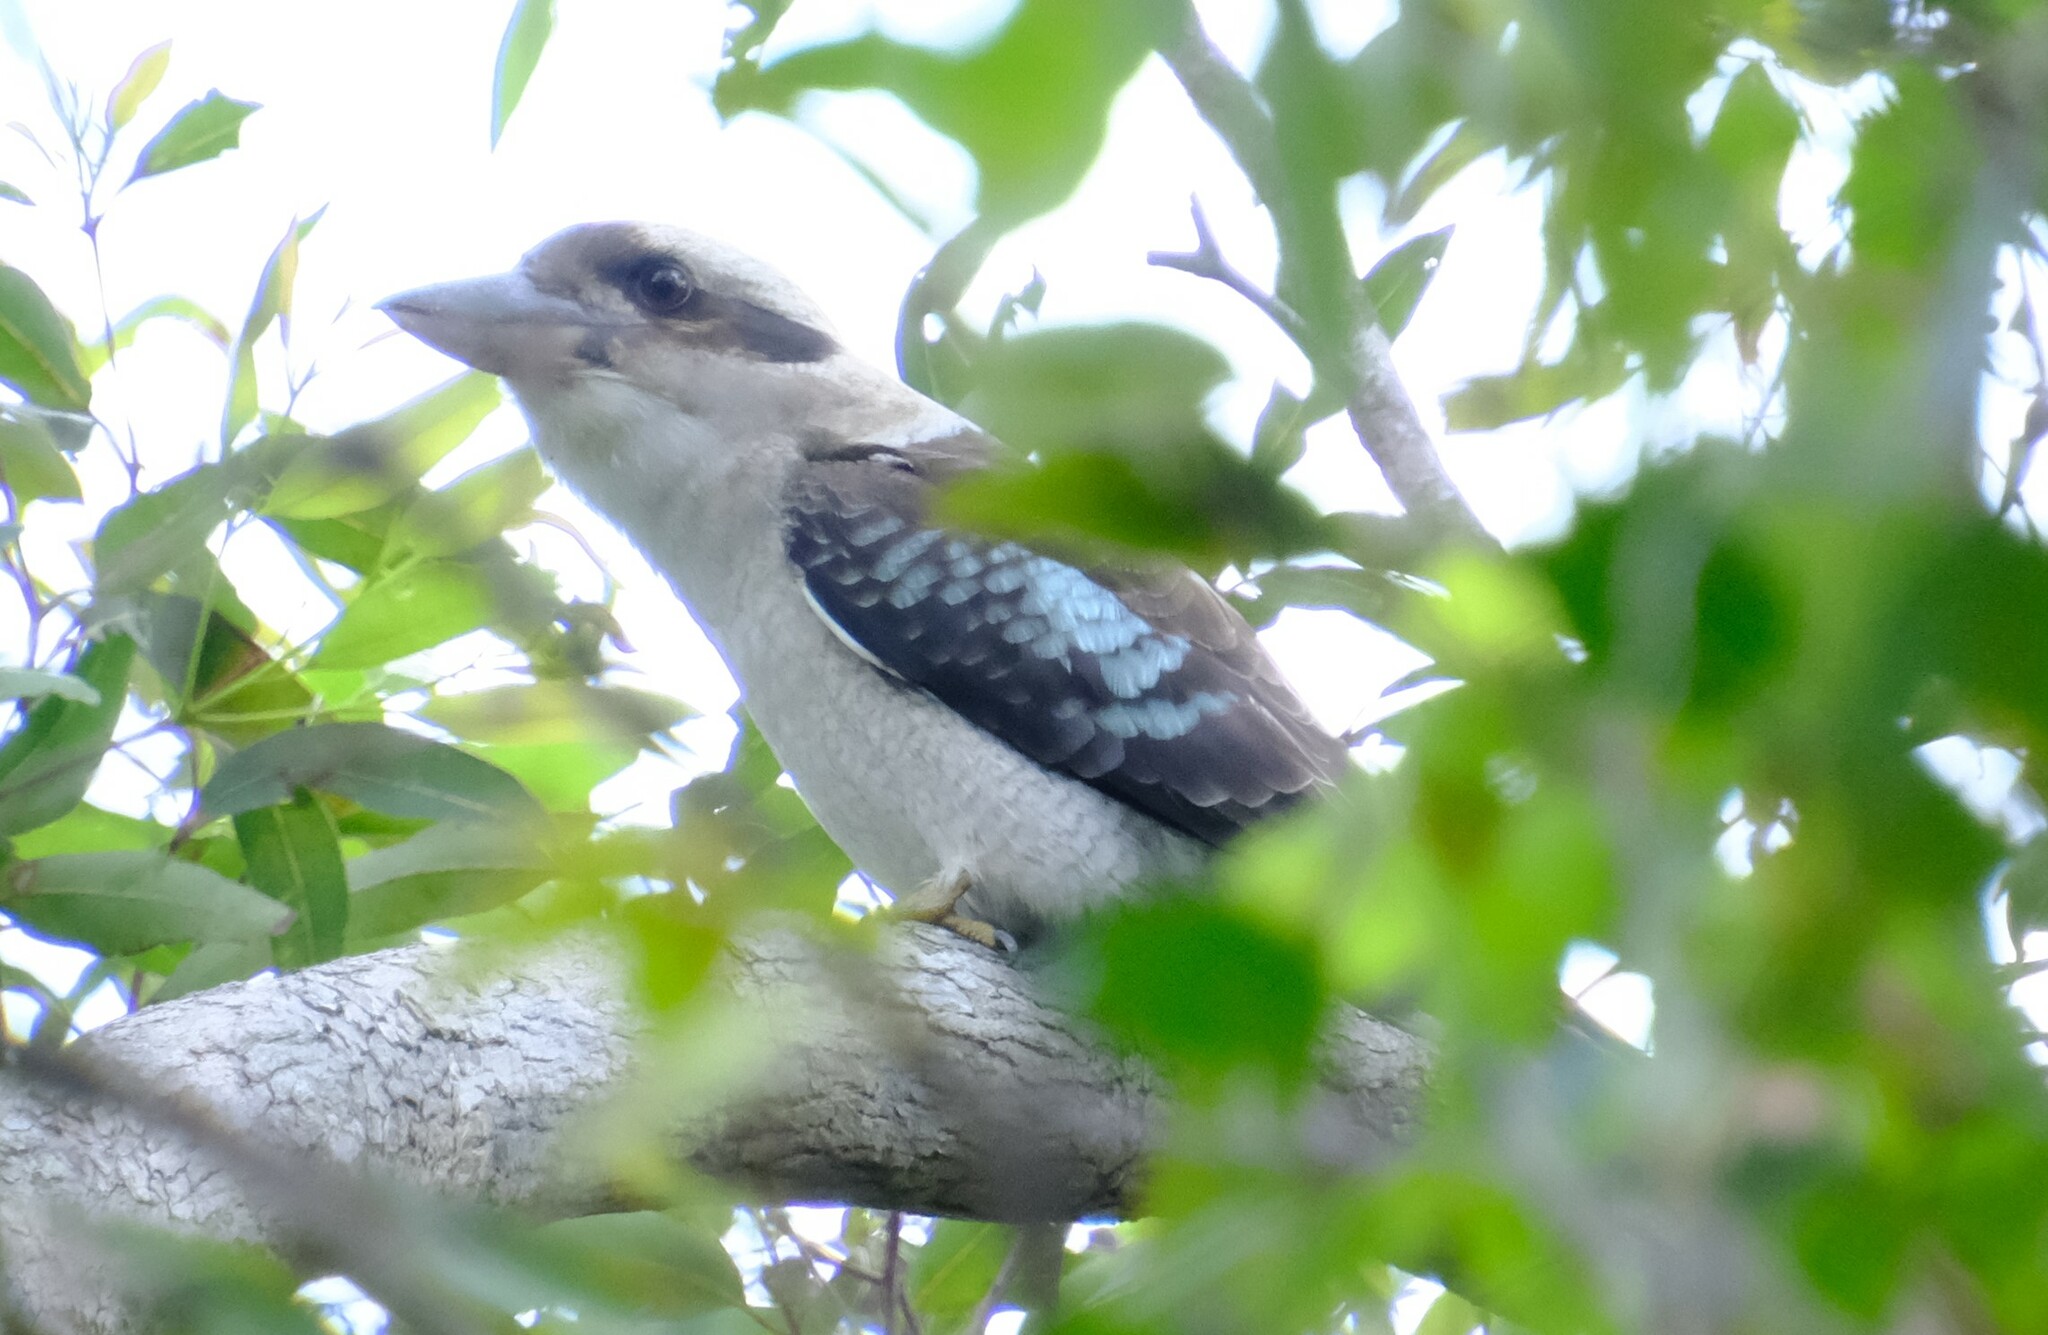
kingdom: Animalia
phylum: Chordata
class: Aves
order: Coraciiformes
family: Alcedinidae
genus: Dacelo
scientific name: Dacelo novaeguineae
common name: Laughing kookaburra
